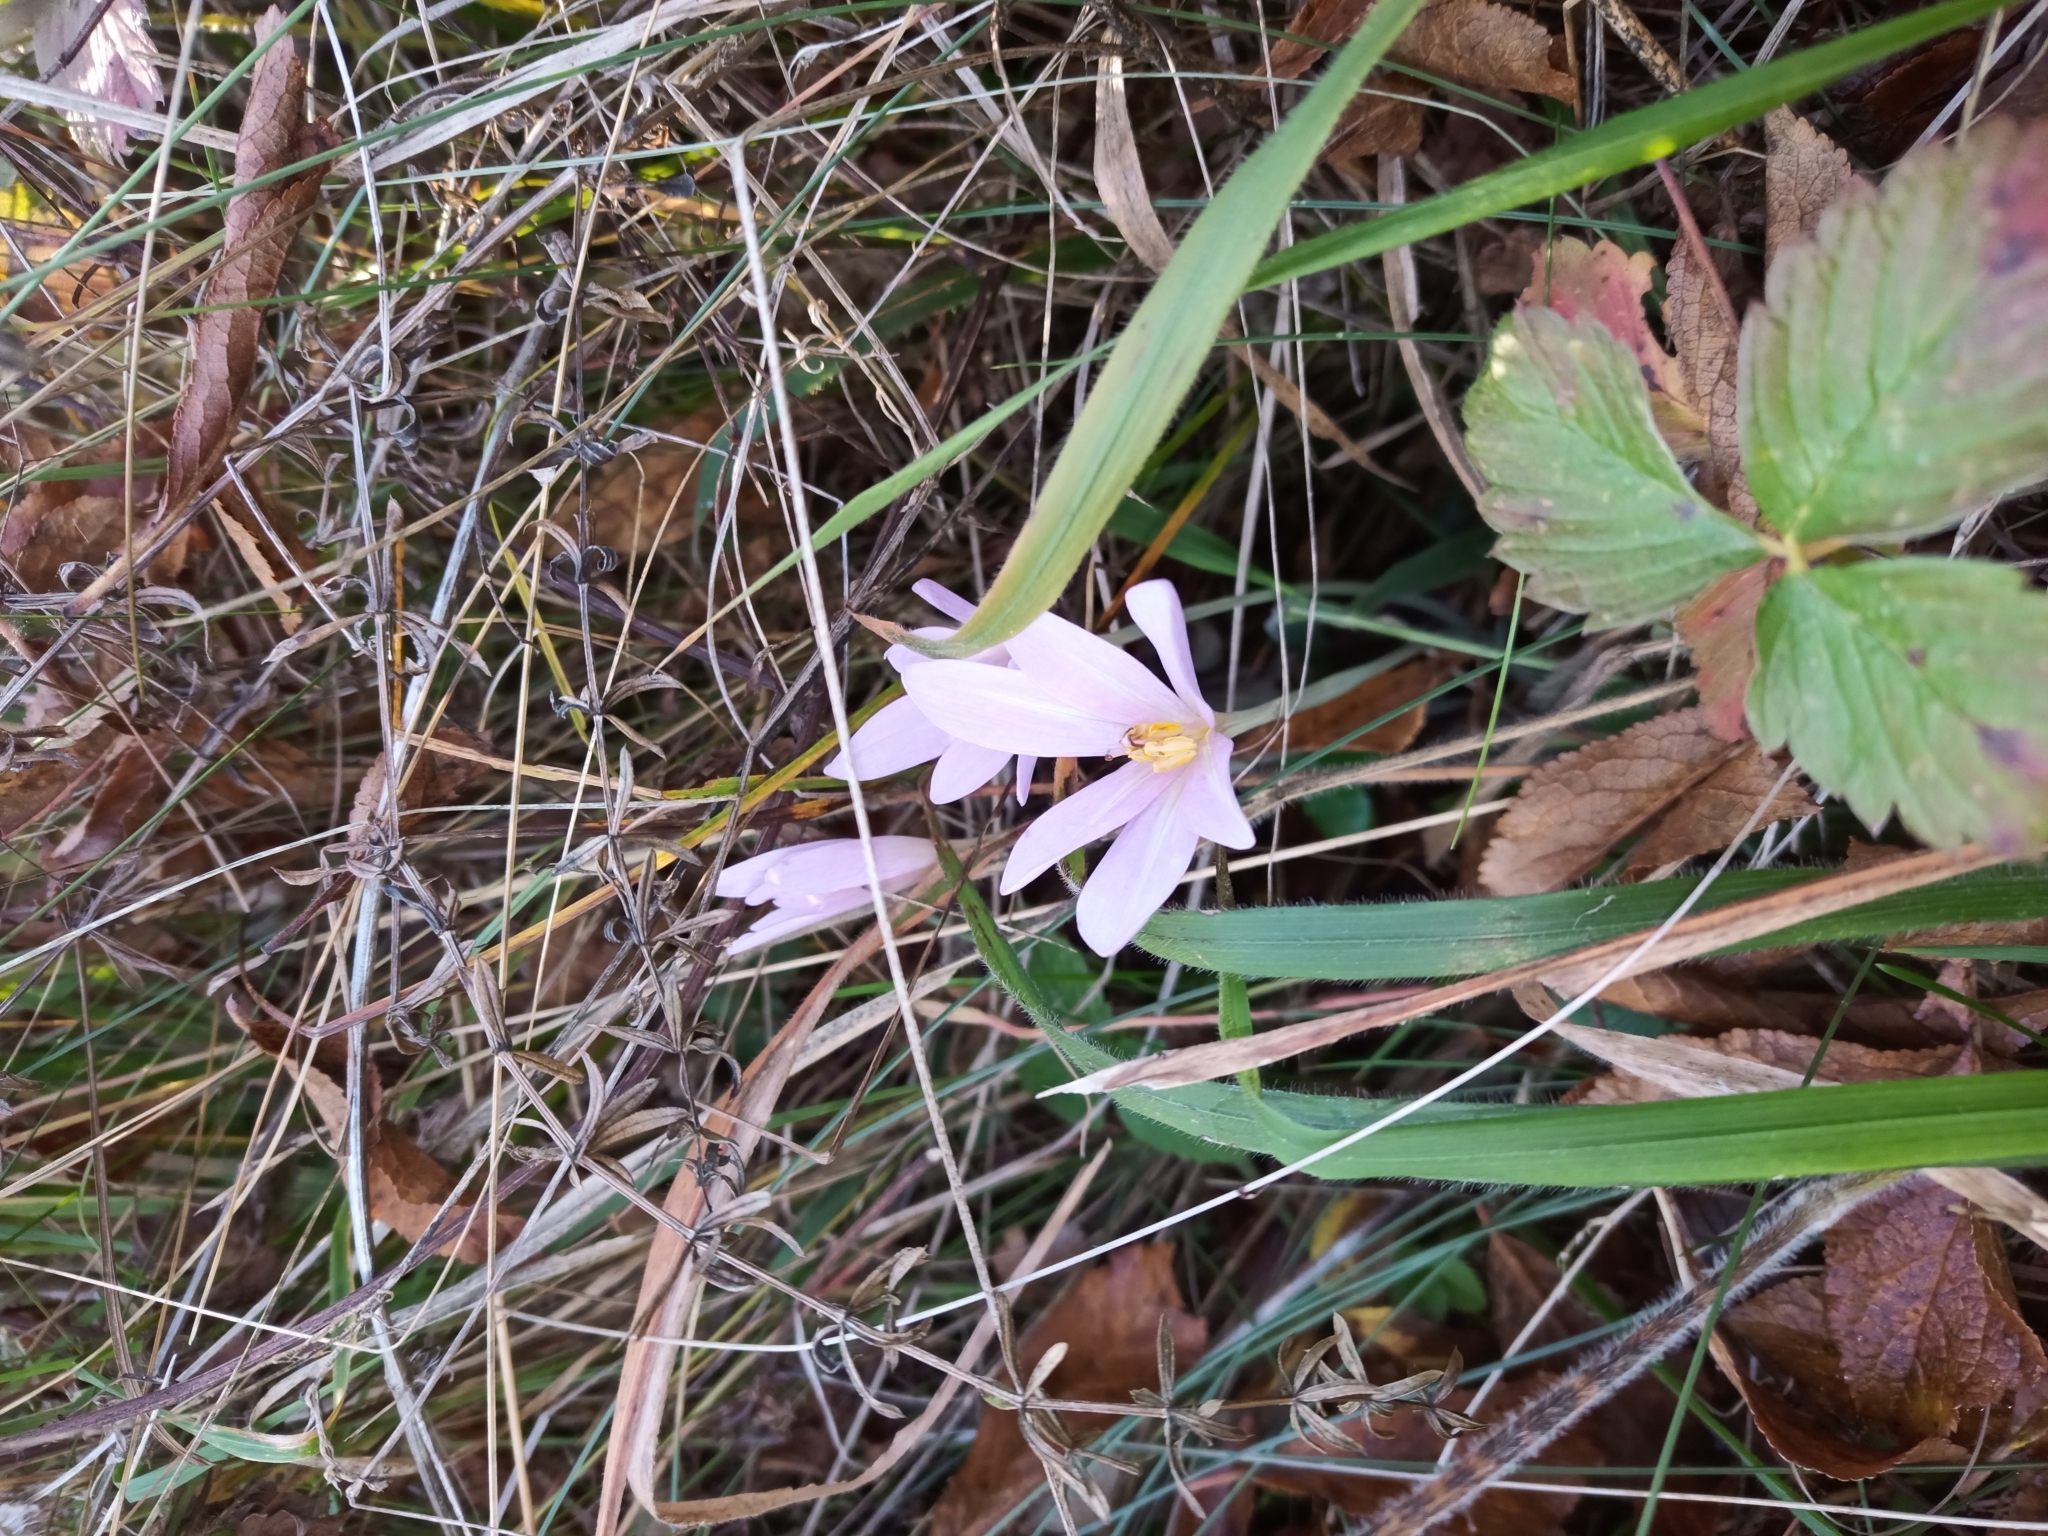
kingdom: Plantae
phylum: Tracheophyta
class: Liliopsida
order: Liliales
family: Colchicaceae
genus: Colchicum
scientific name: Colchicum autumnale
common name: Autumn crocus
